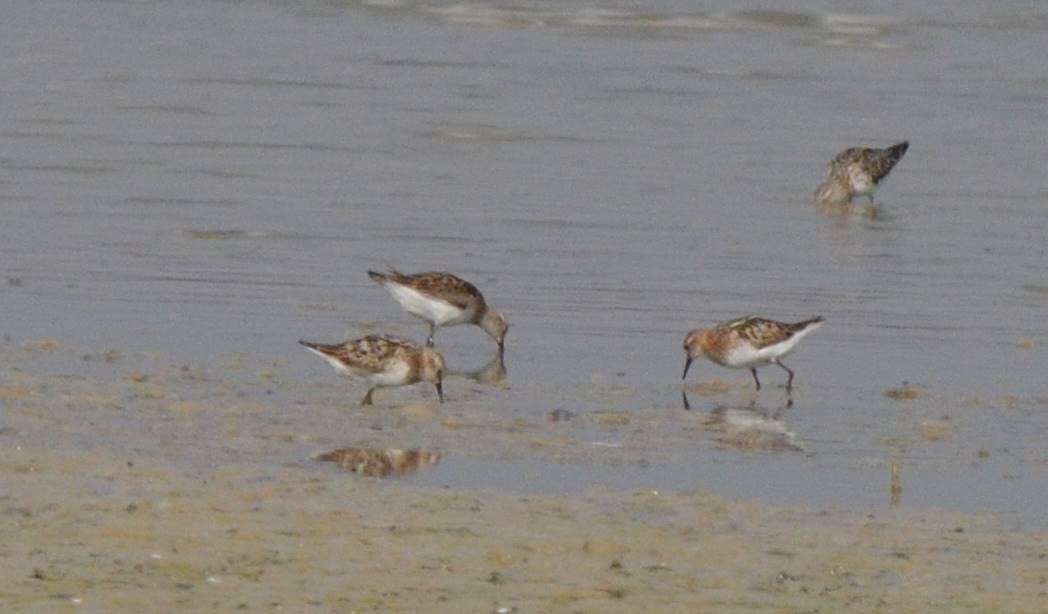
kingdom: Animalia
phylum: Chordata
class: Aves
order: Charadriiformes
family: Scolopacidae
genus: Calidris
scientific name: Calidris minuta
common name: Little stint
